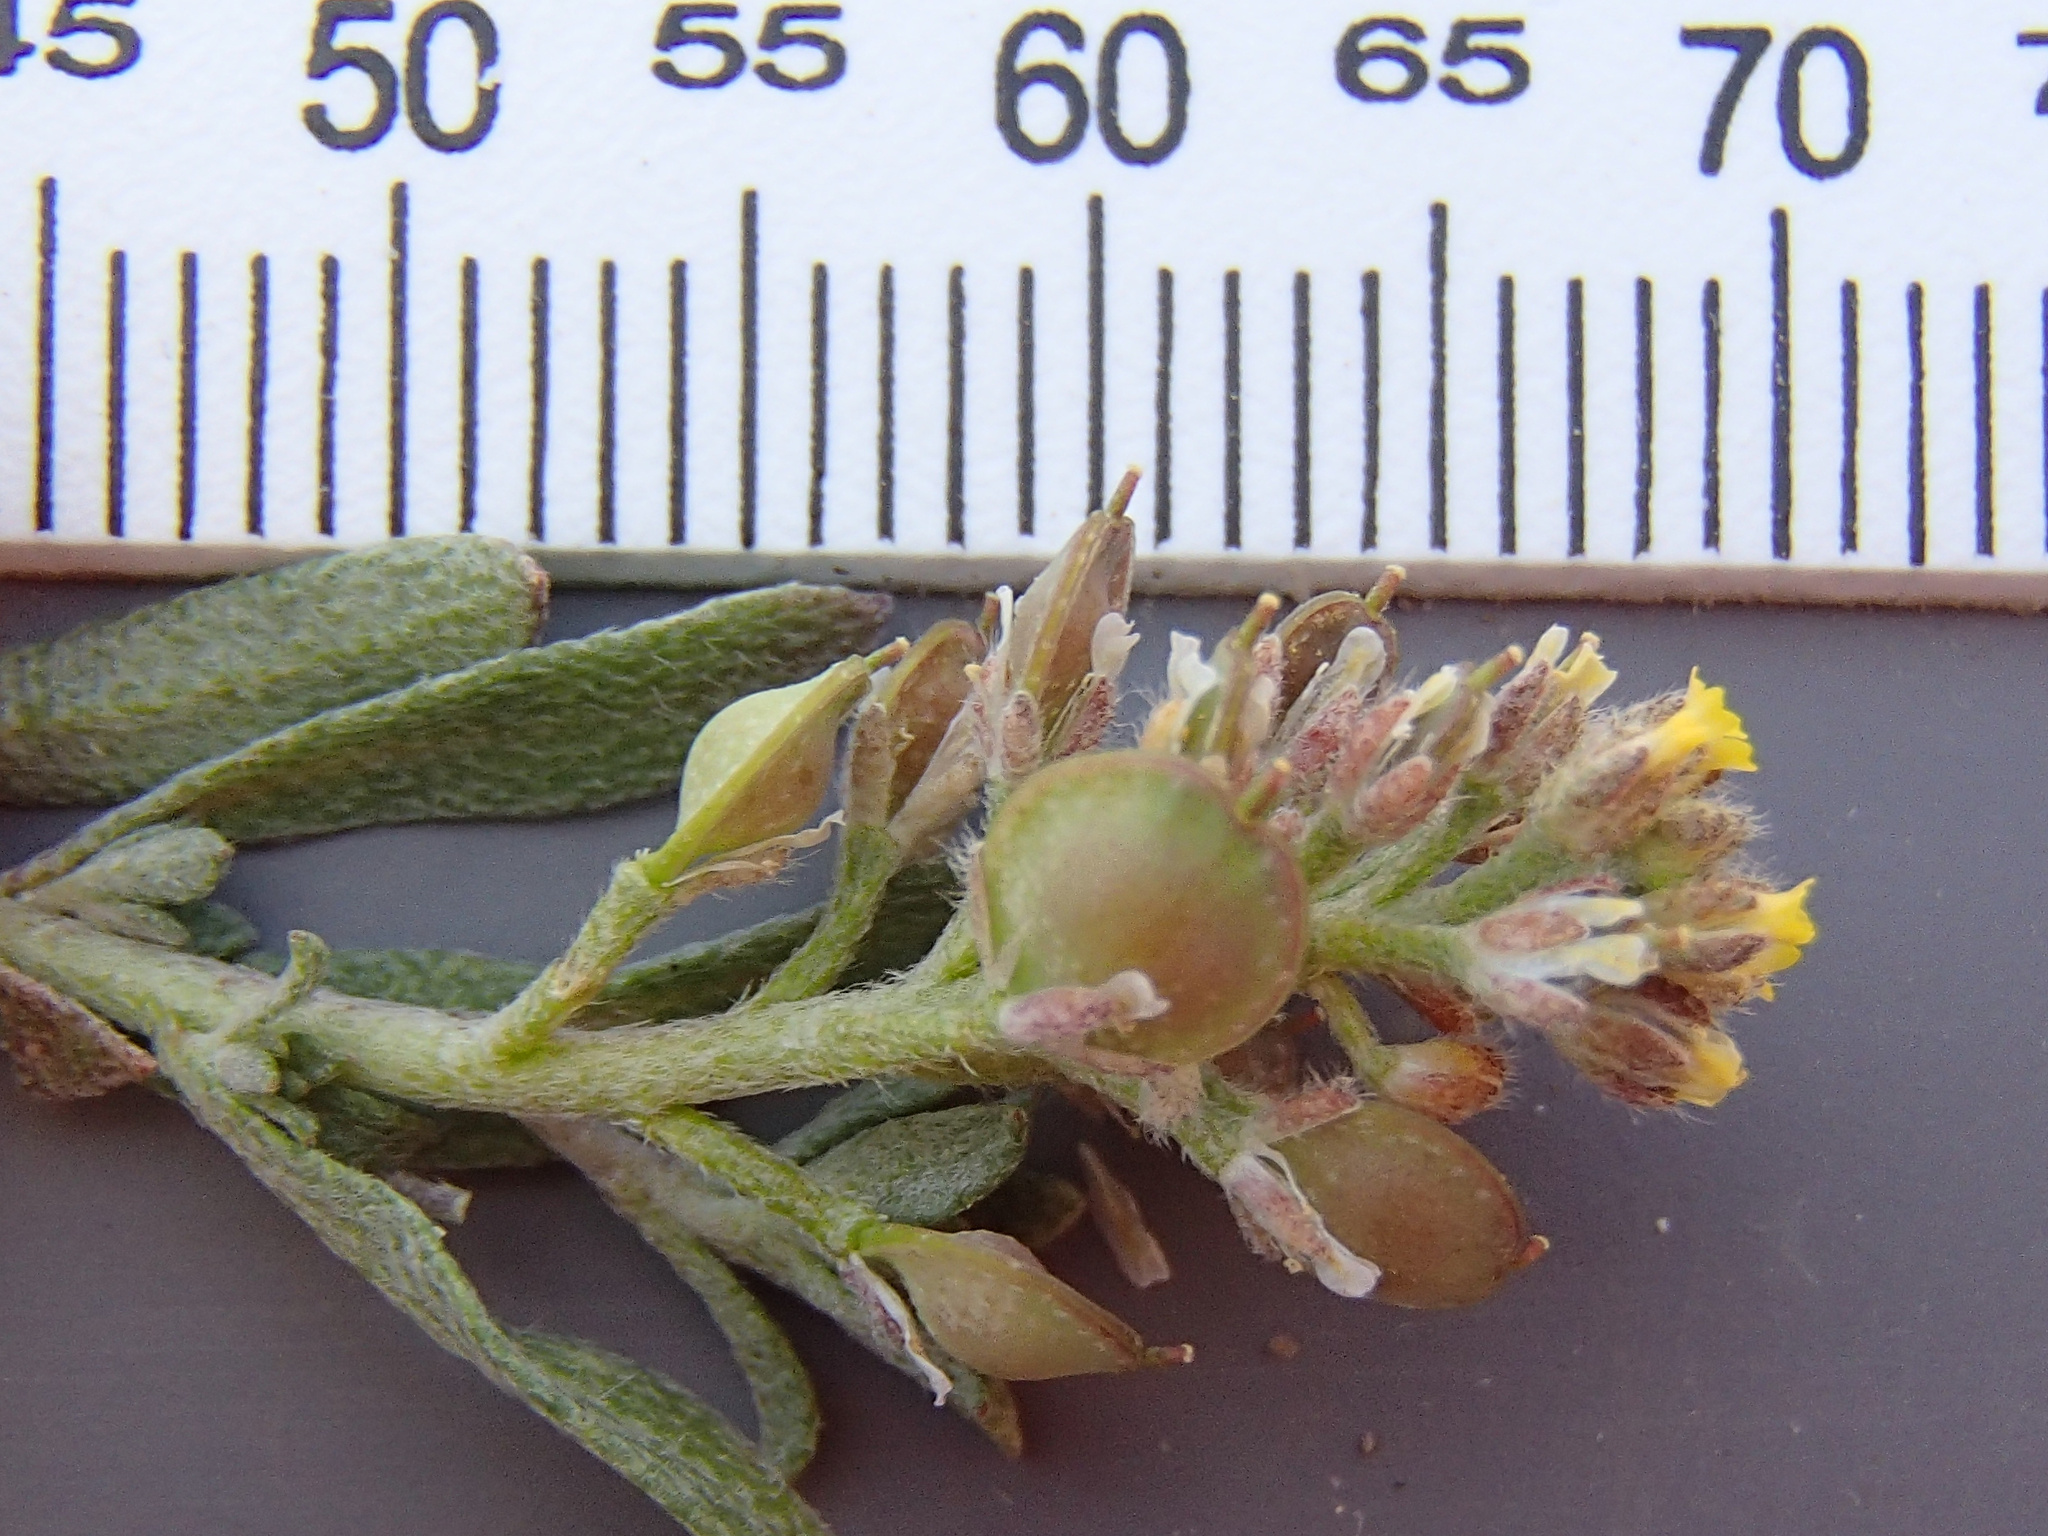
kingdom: Plantae
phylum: Tracheophyta
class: Magnoliopsida
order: Brassicales
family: Brassicaceae
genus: Alyssum
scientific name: Alyssum turkestanicum
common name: Desert alyssum
